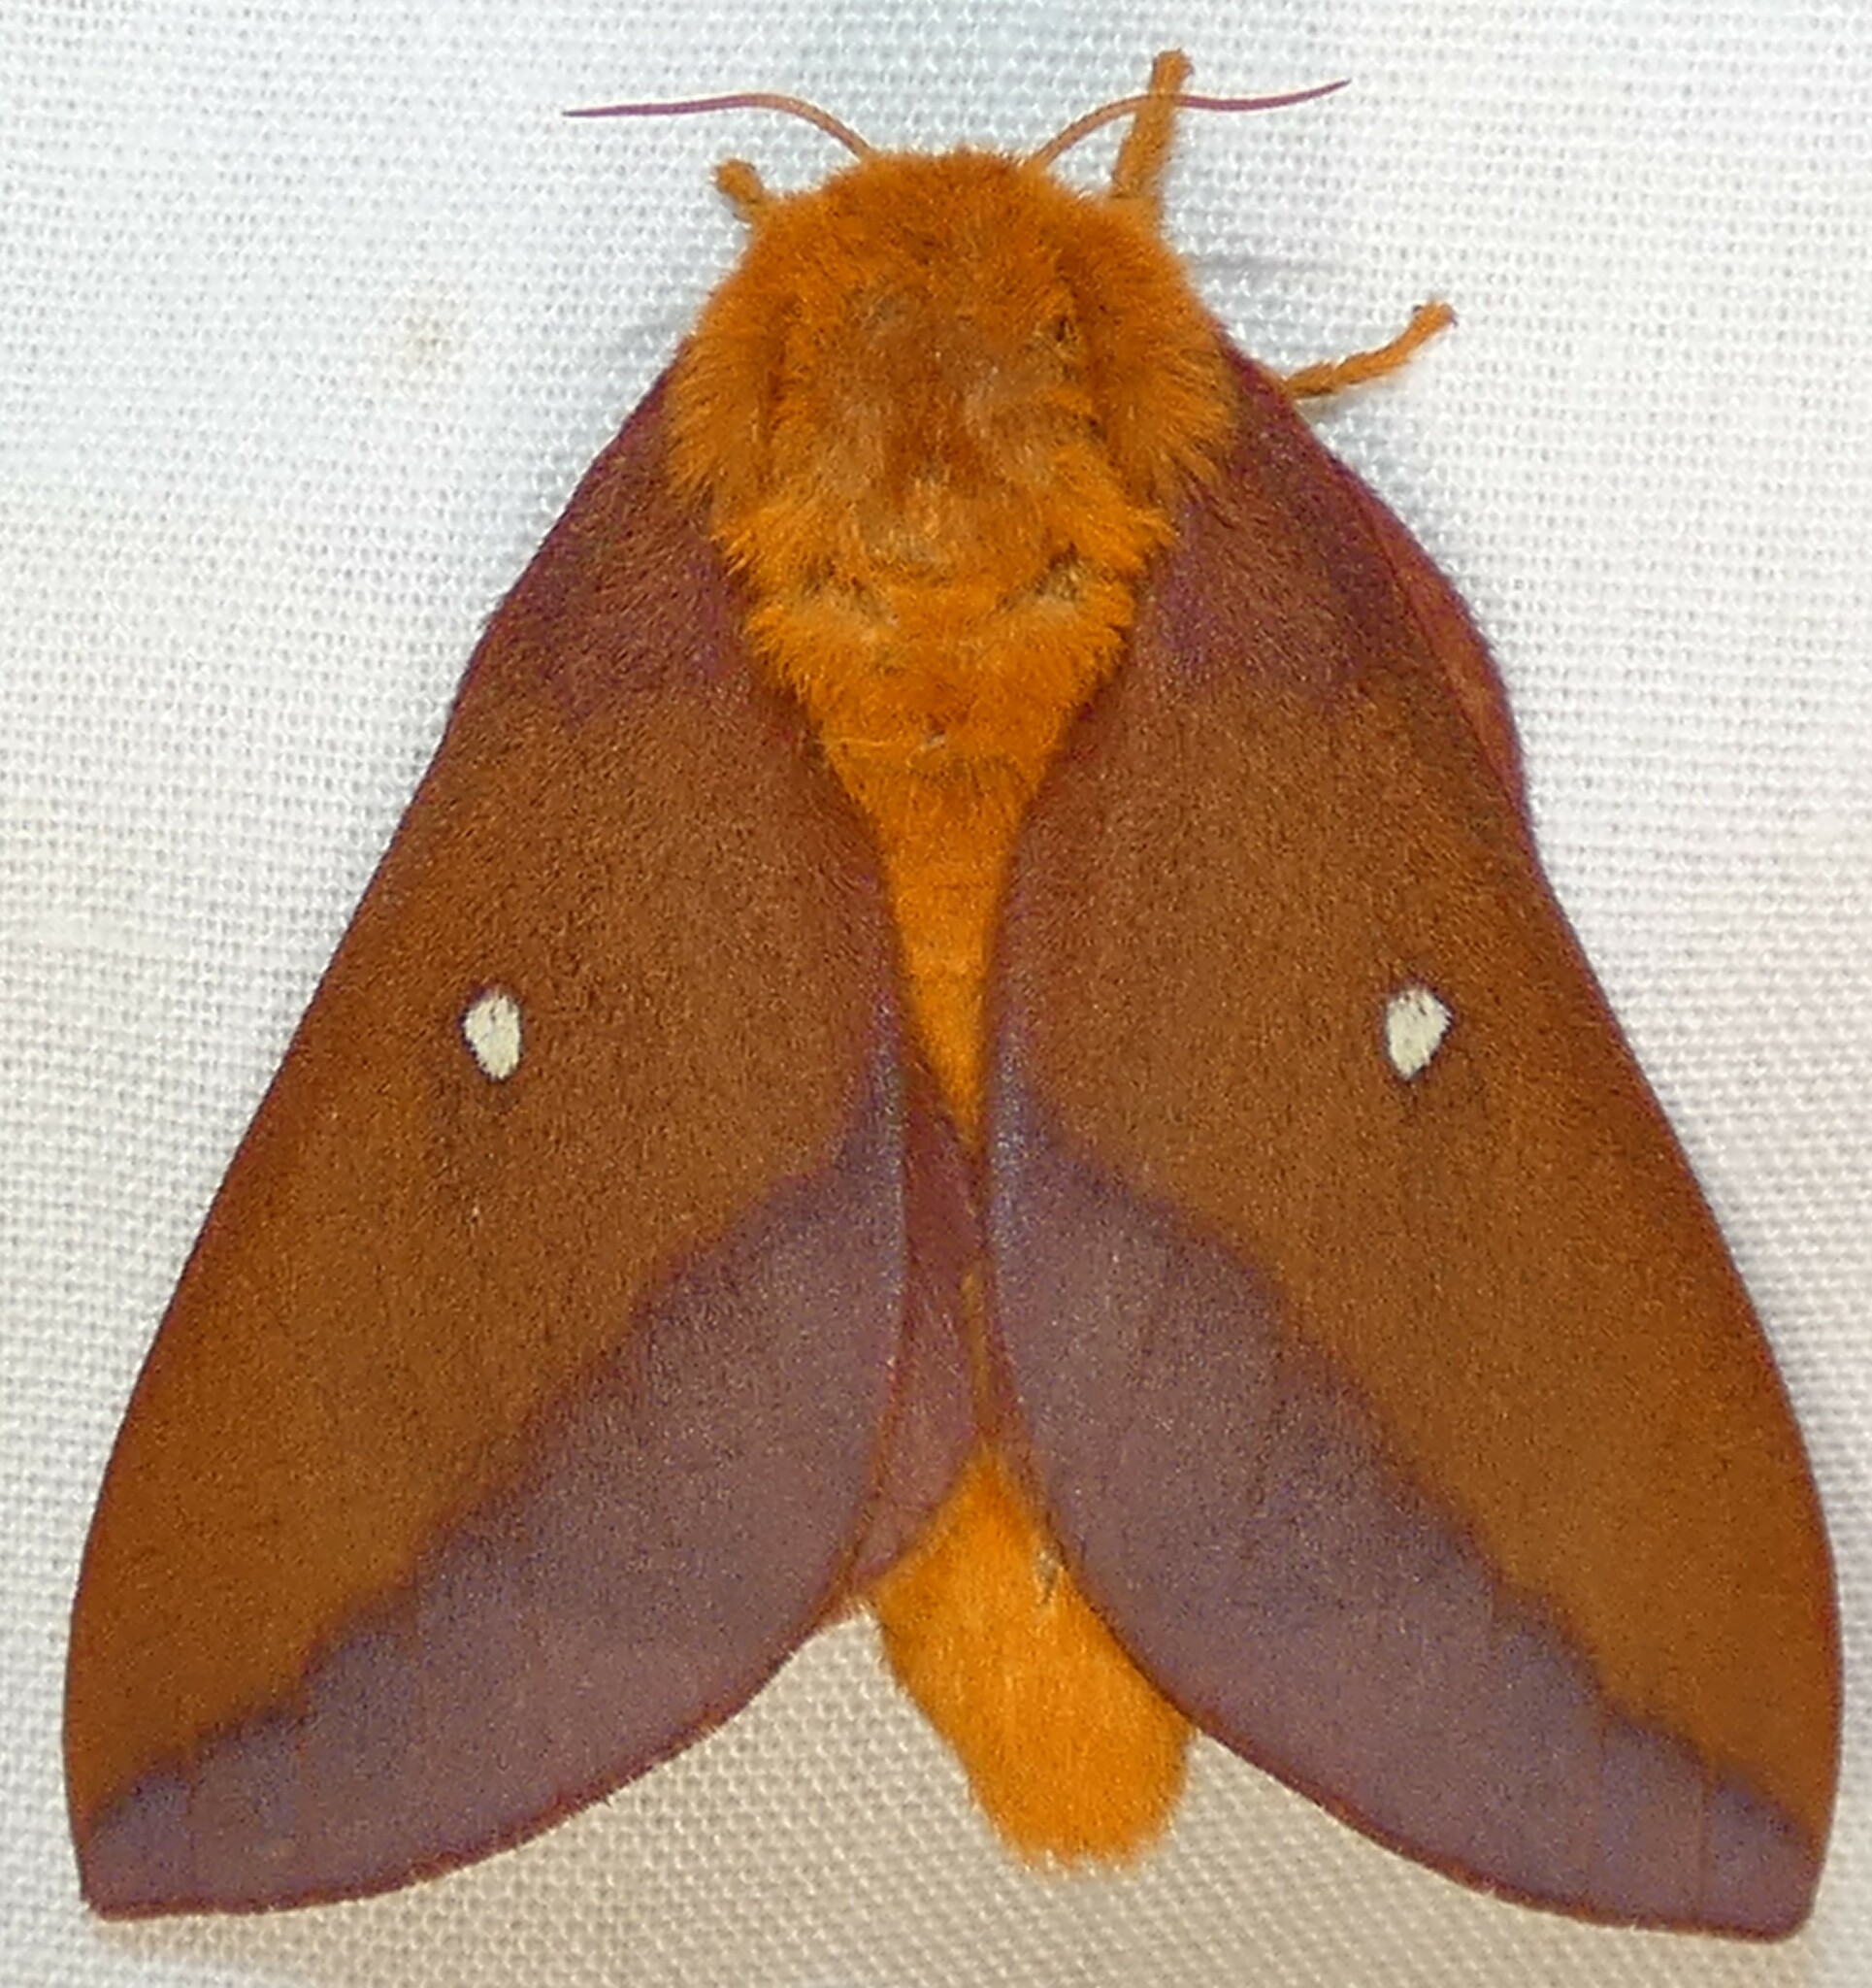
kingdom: Animalia
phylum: Arthropoda
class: Insecta
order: Lepidoptera
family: Saturniidae
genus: Anisota
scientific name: Anisota virginiensis
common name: Pink striped oakworm moth
